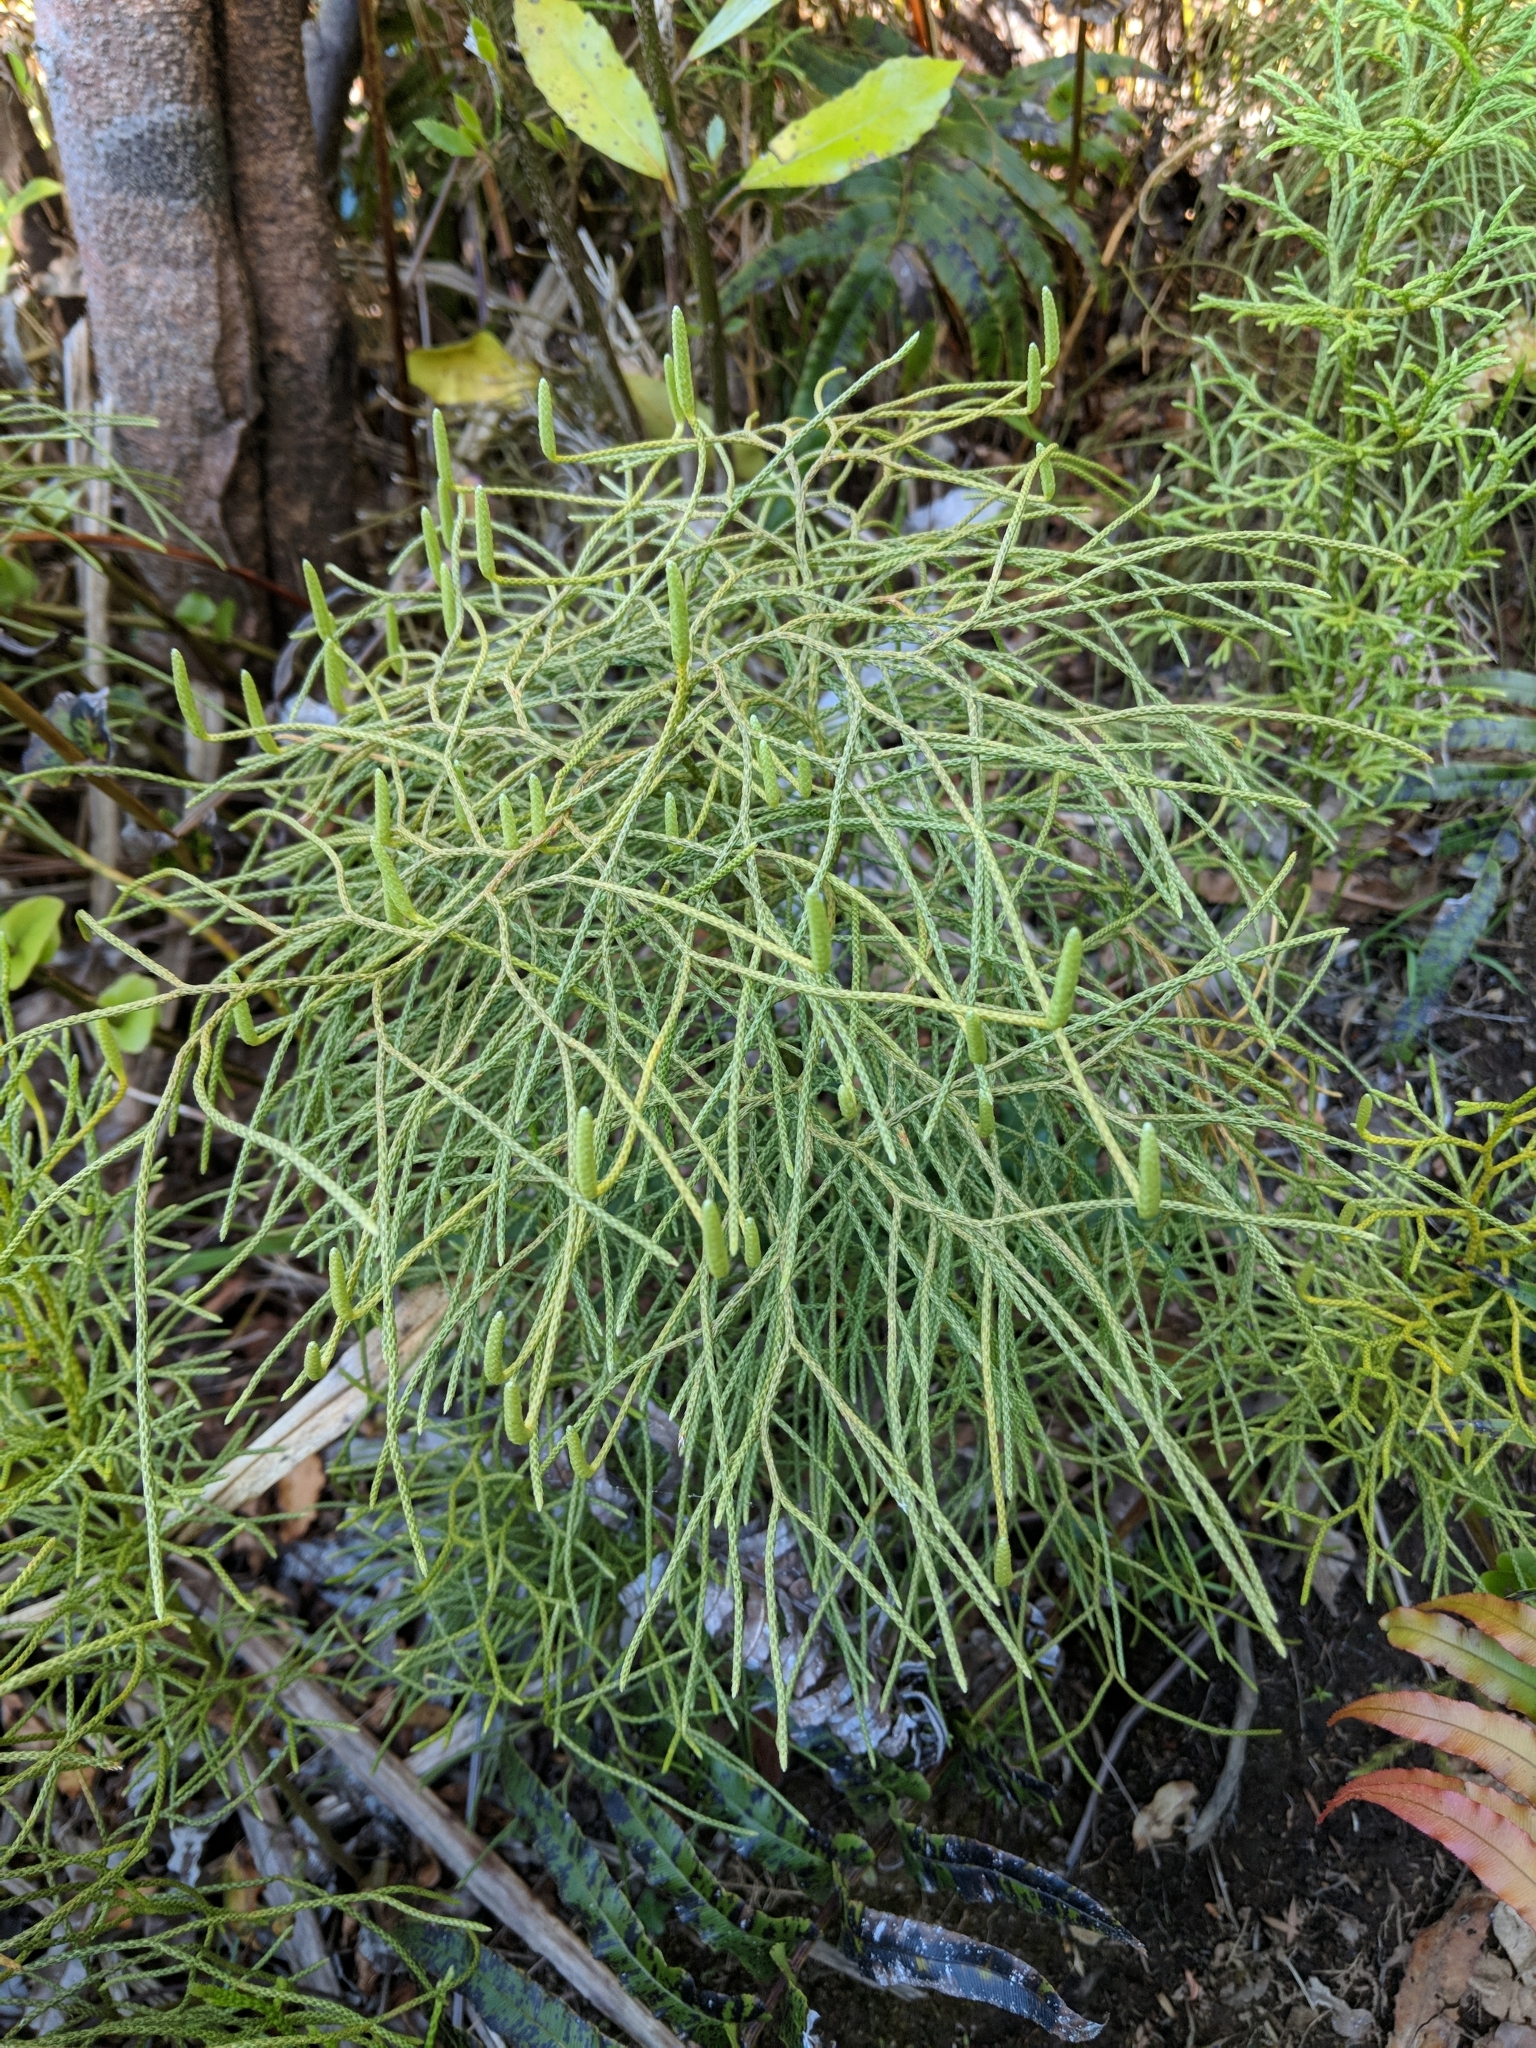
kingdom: Plantae
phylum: Tracheophyta
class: Lycopodiopsida
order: Lycopodiales
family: Lycopodiaceae
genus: Pseudolycopodium
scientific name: Pseudolycopodium densum
